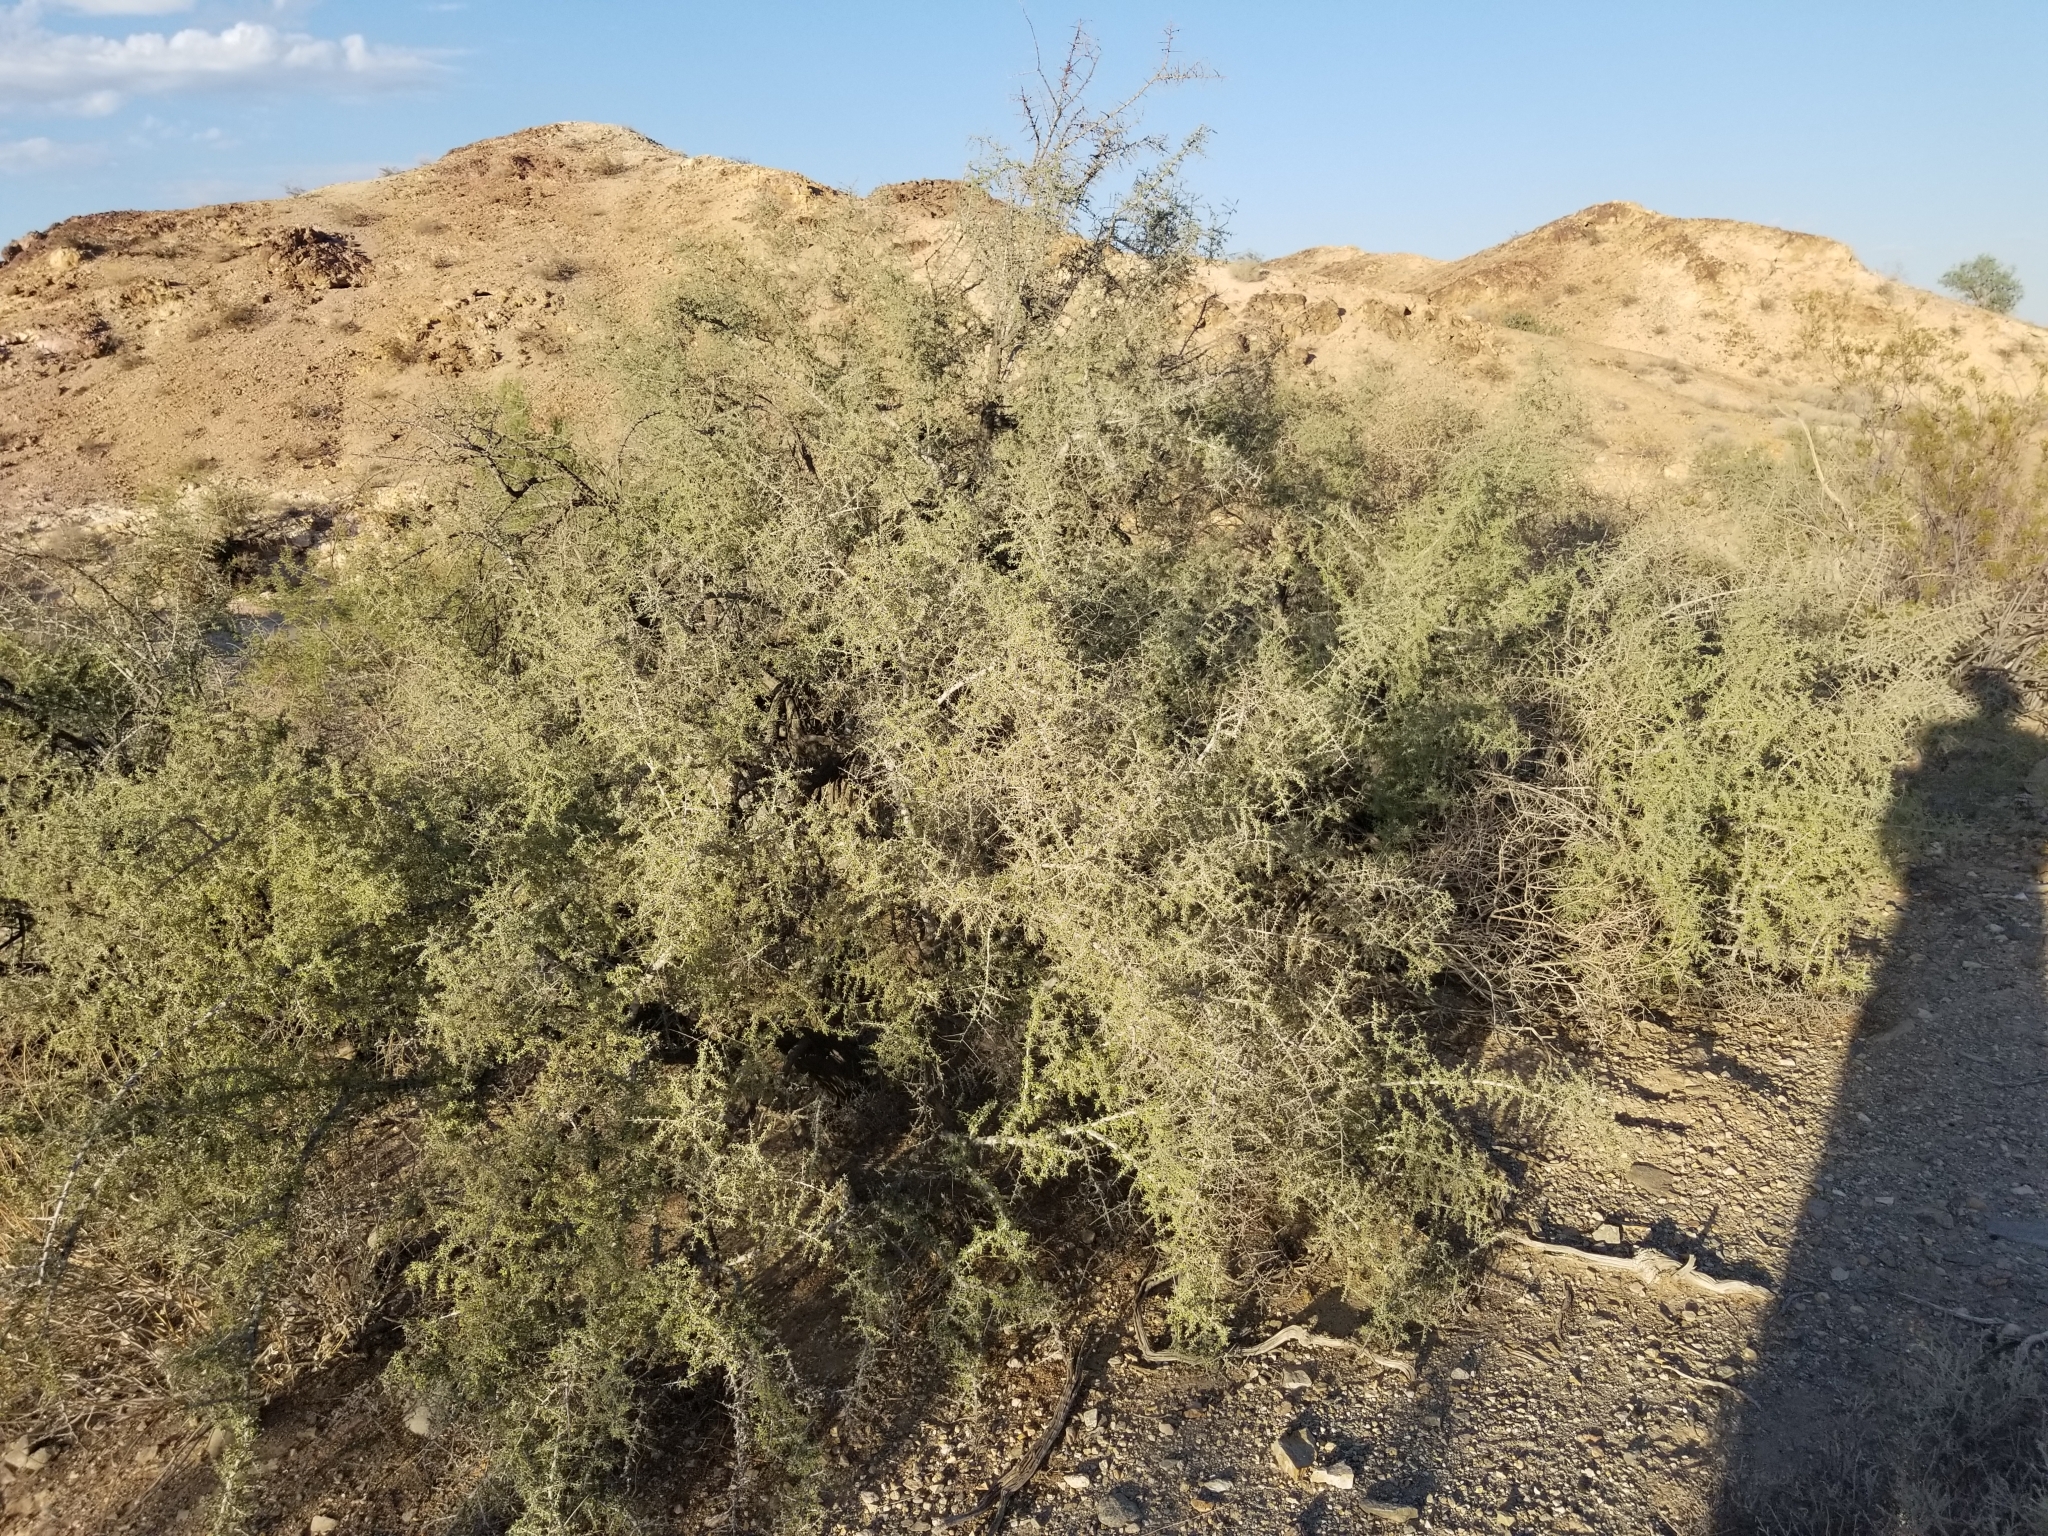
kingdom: Plantae
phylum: Tracheophyta
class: Magnoliopsida
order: Rosales
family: Rhamnaceae
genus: Condalia
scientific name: Condalia globosa
